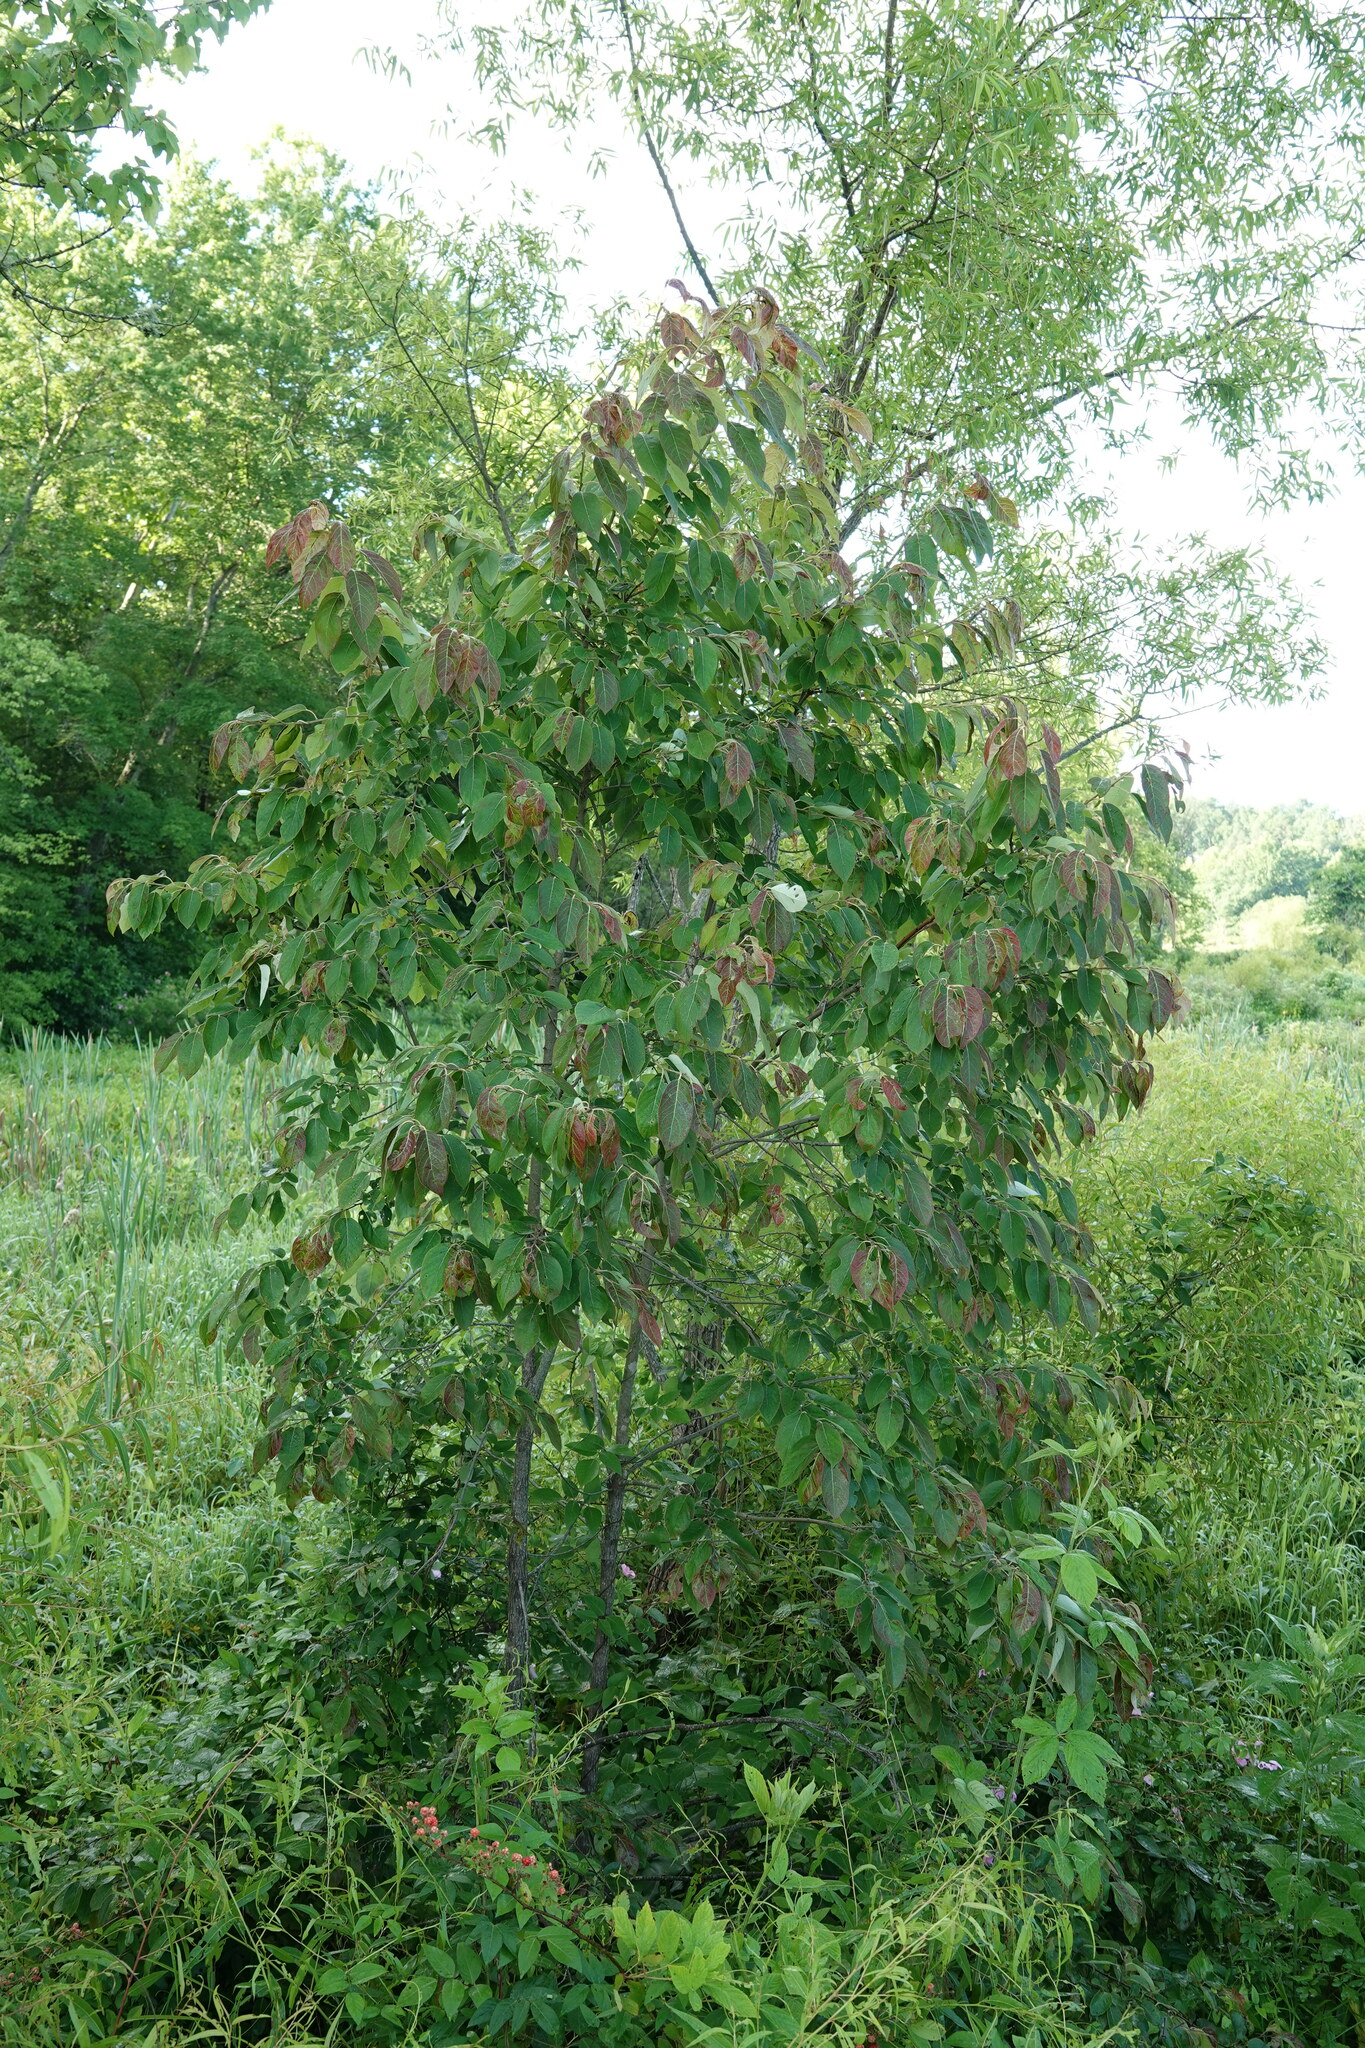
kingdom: Plantae
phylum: Tracheophyta
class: Magnoliopsida
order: Ericales
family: Ebenaceae
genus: Diospyros
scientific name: Diospyros virginiana
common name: Persimmon
